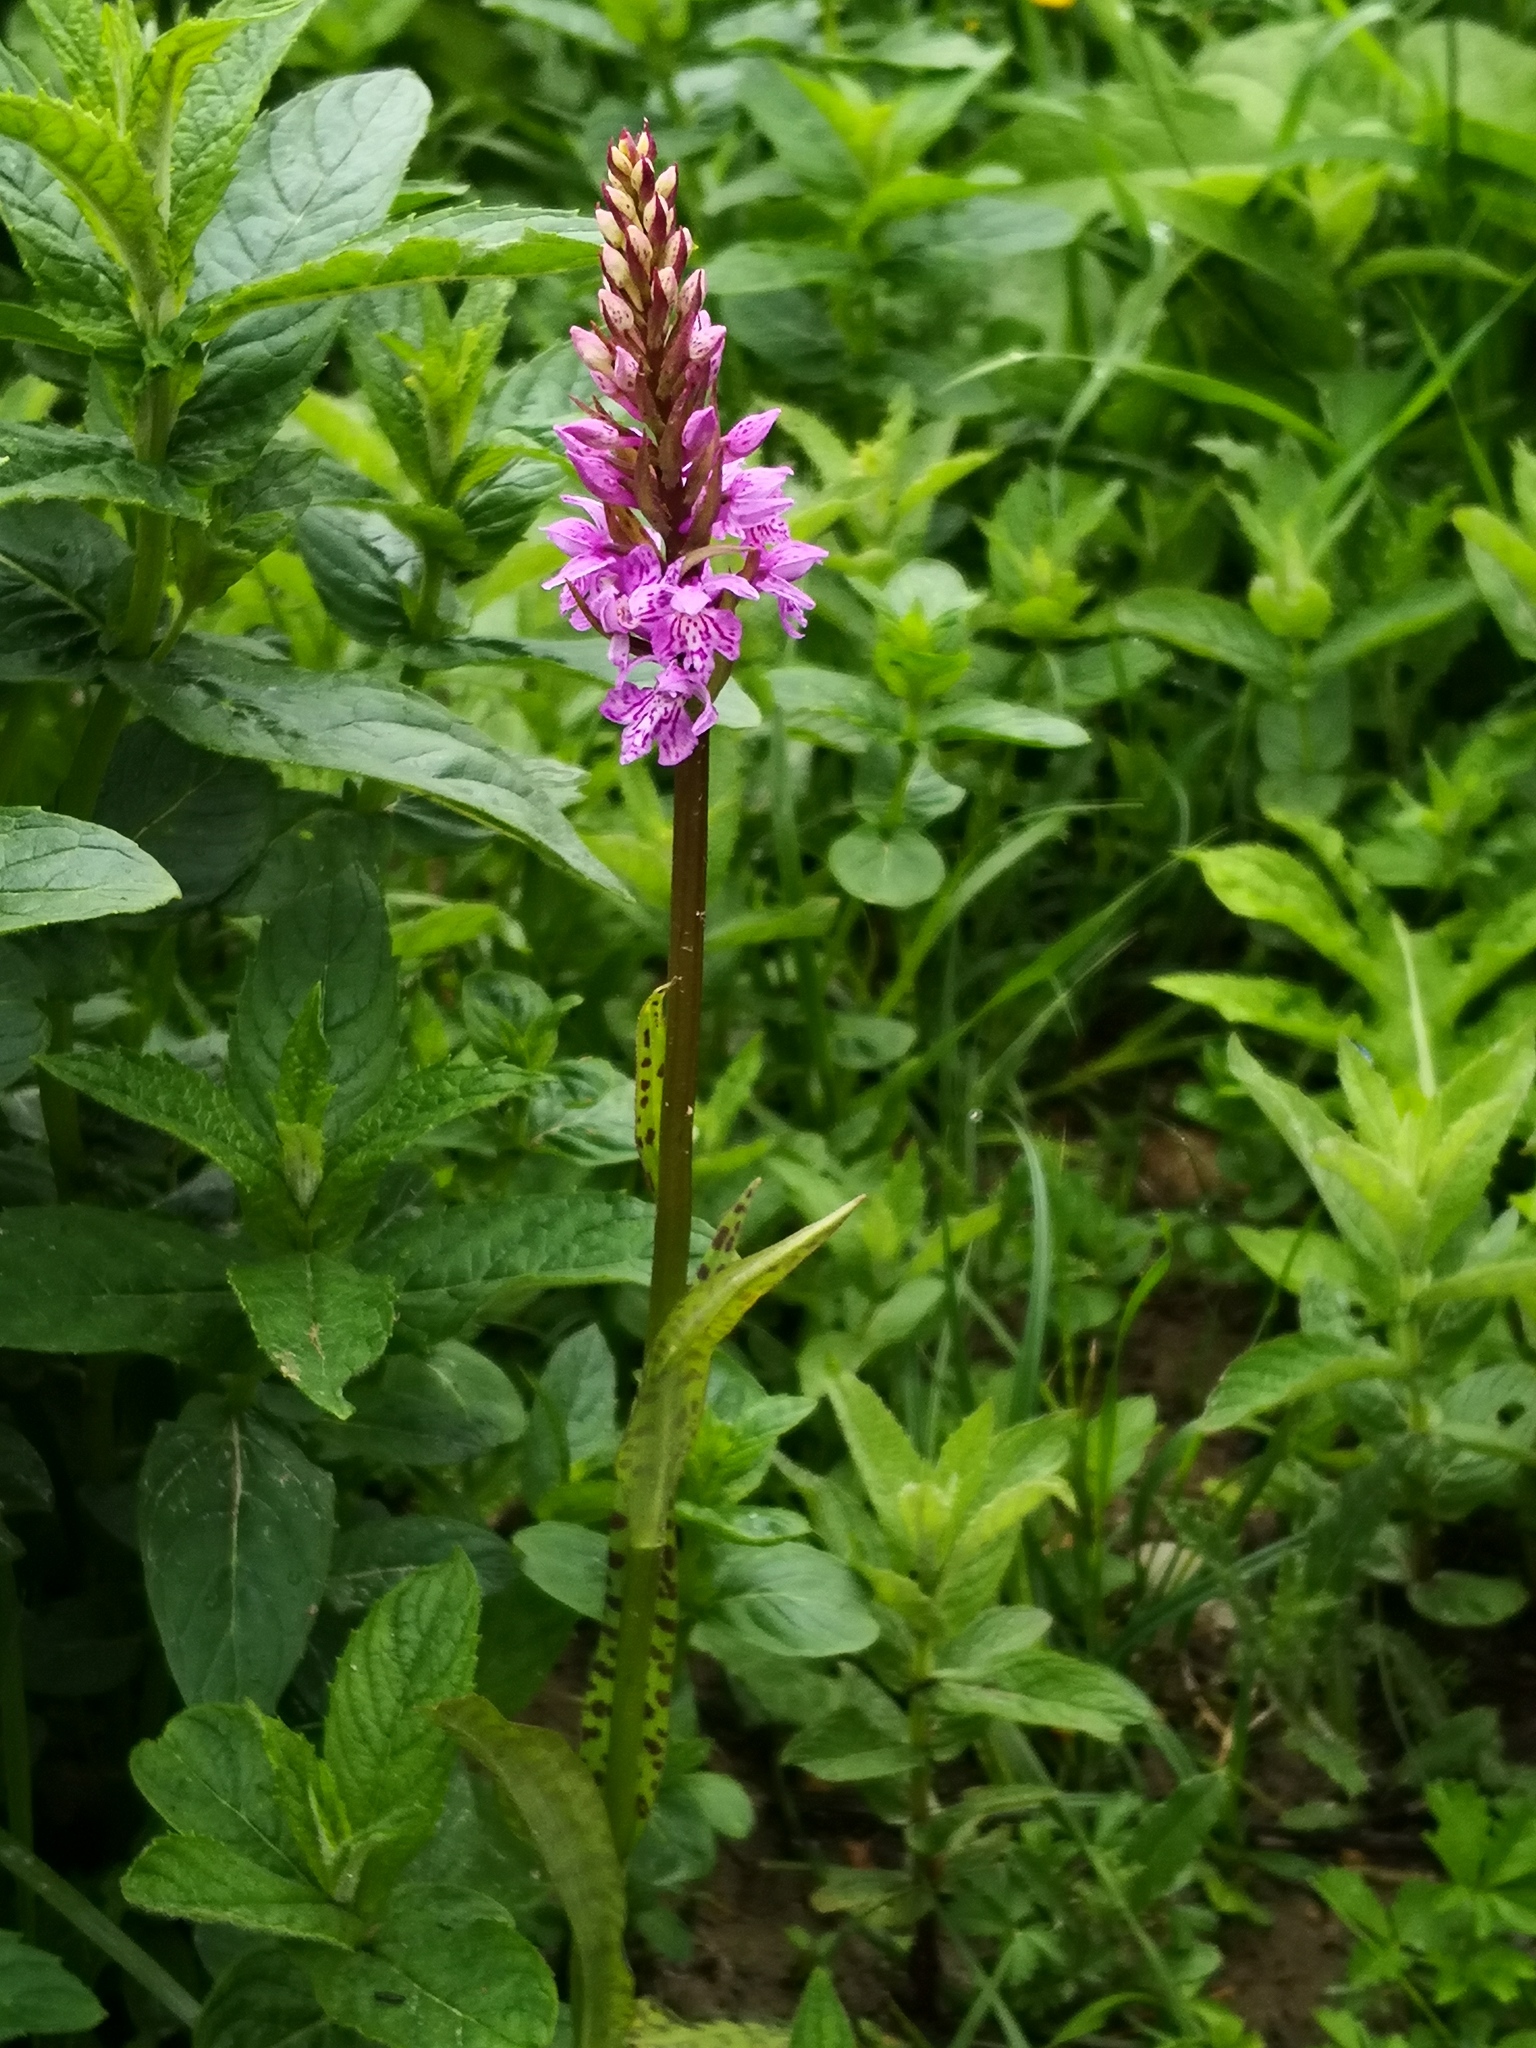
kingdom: Plantae
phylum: Tracheophyta
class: Liliopsida
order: Asparagales
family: Orchidaceae
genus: Dactylorhiza
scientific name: Dactylorhiza maculata
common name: Heath spotted-orchid
